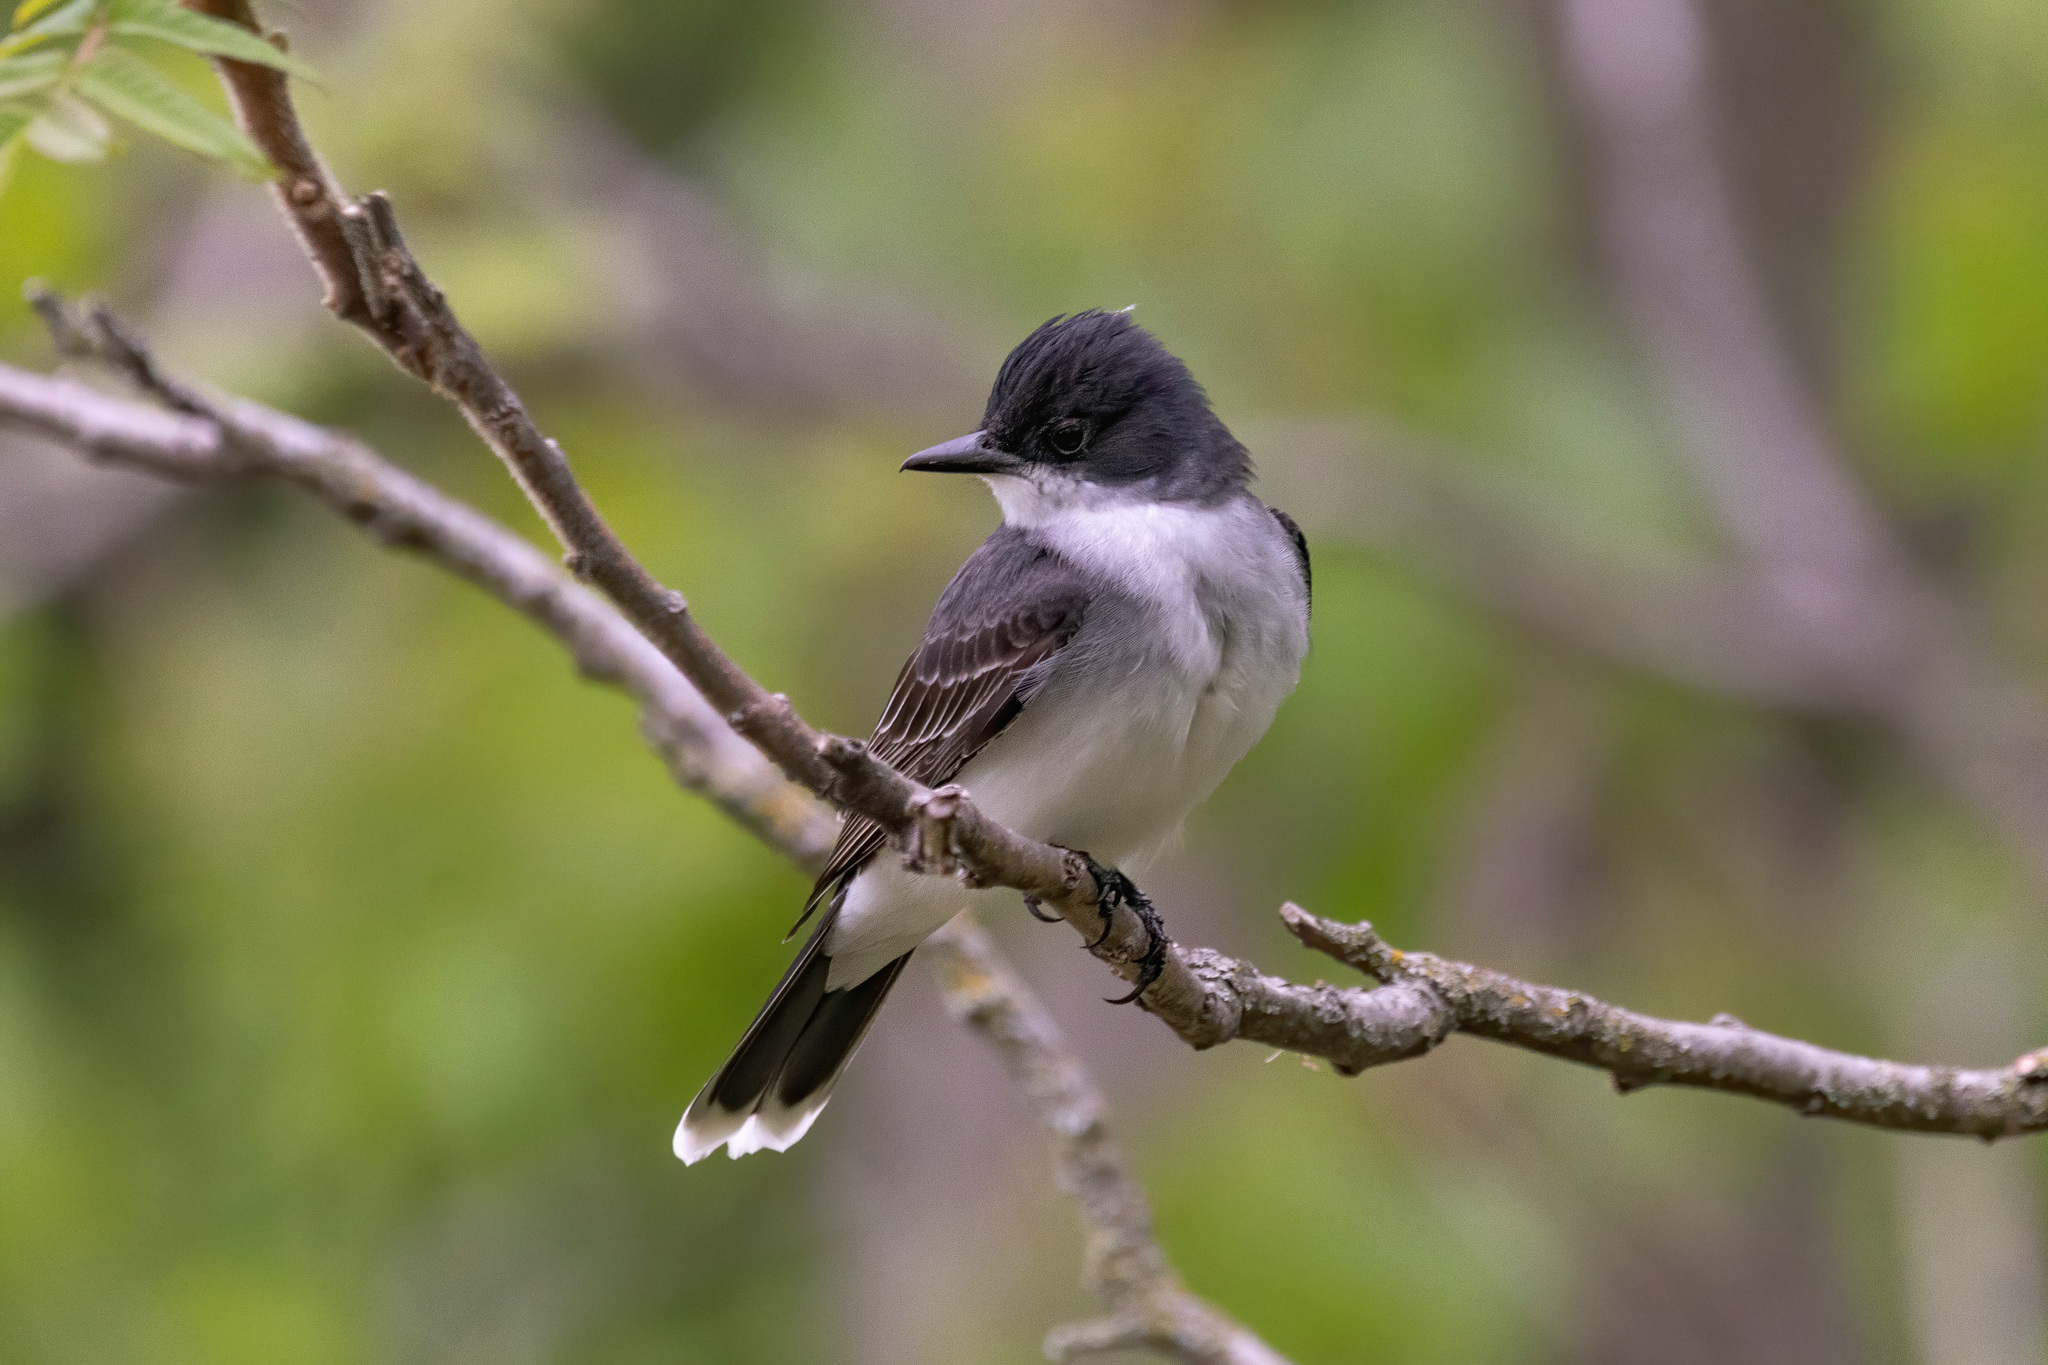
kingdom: Animalia
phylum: Chordata
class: Aves
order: Passeriformes
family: Tyrannidae
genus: Tyrannus
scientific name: Tyrannus tyrannus
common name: Eastern kingbird
